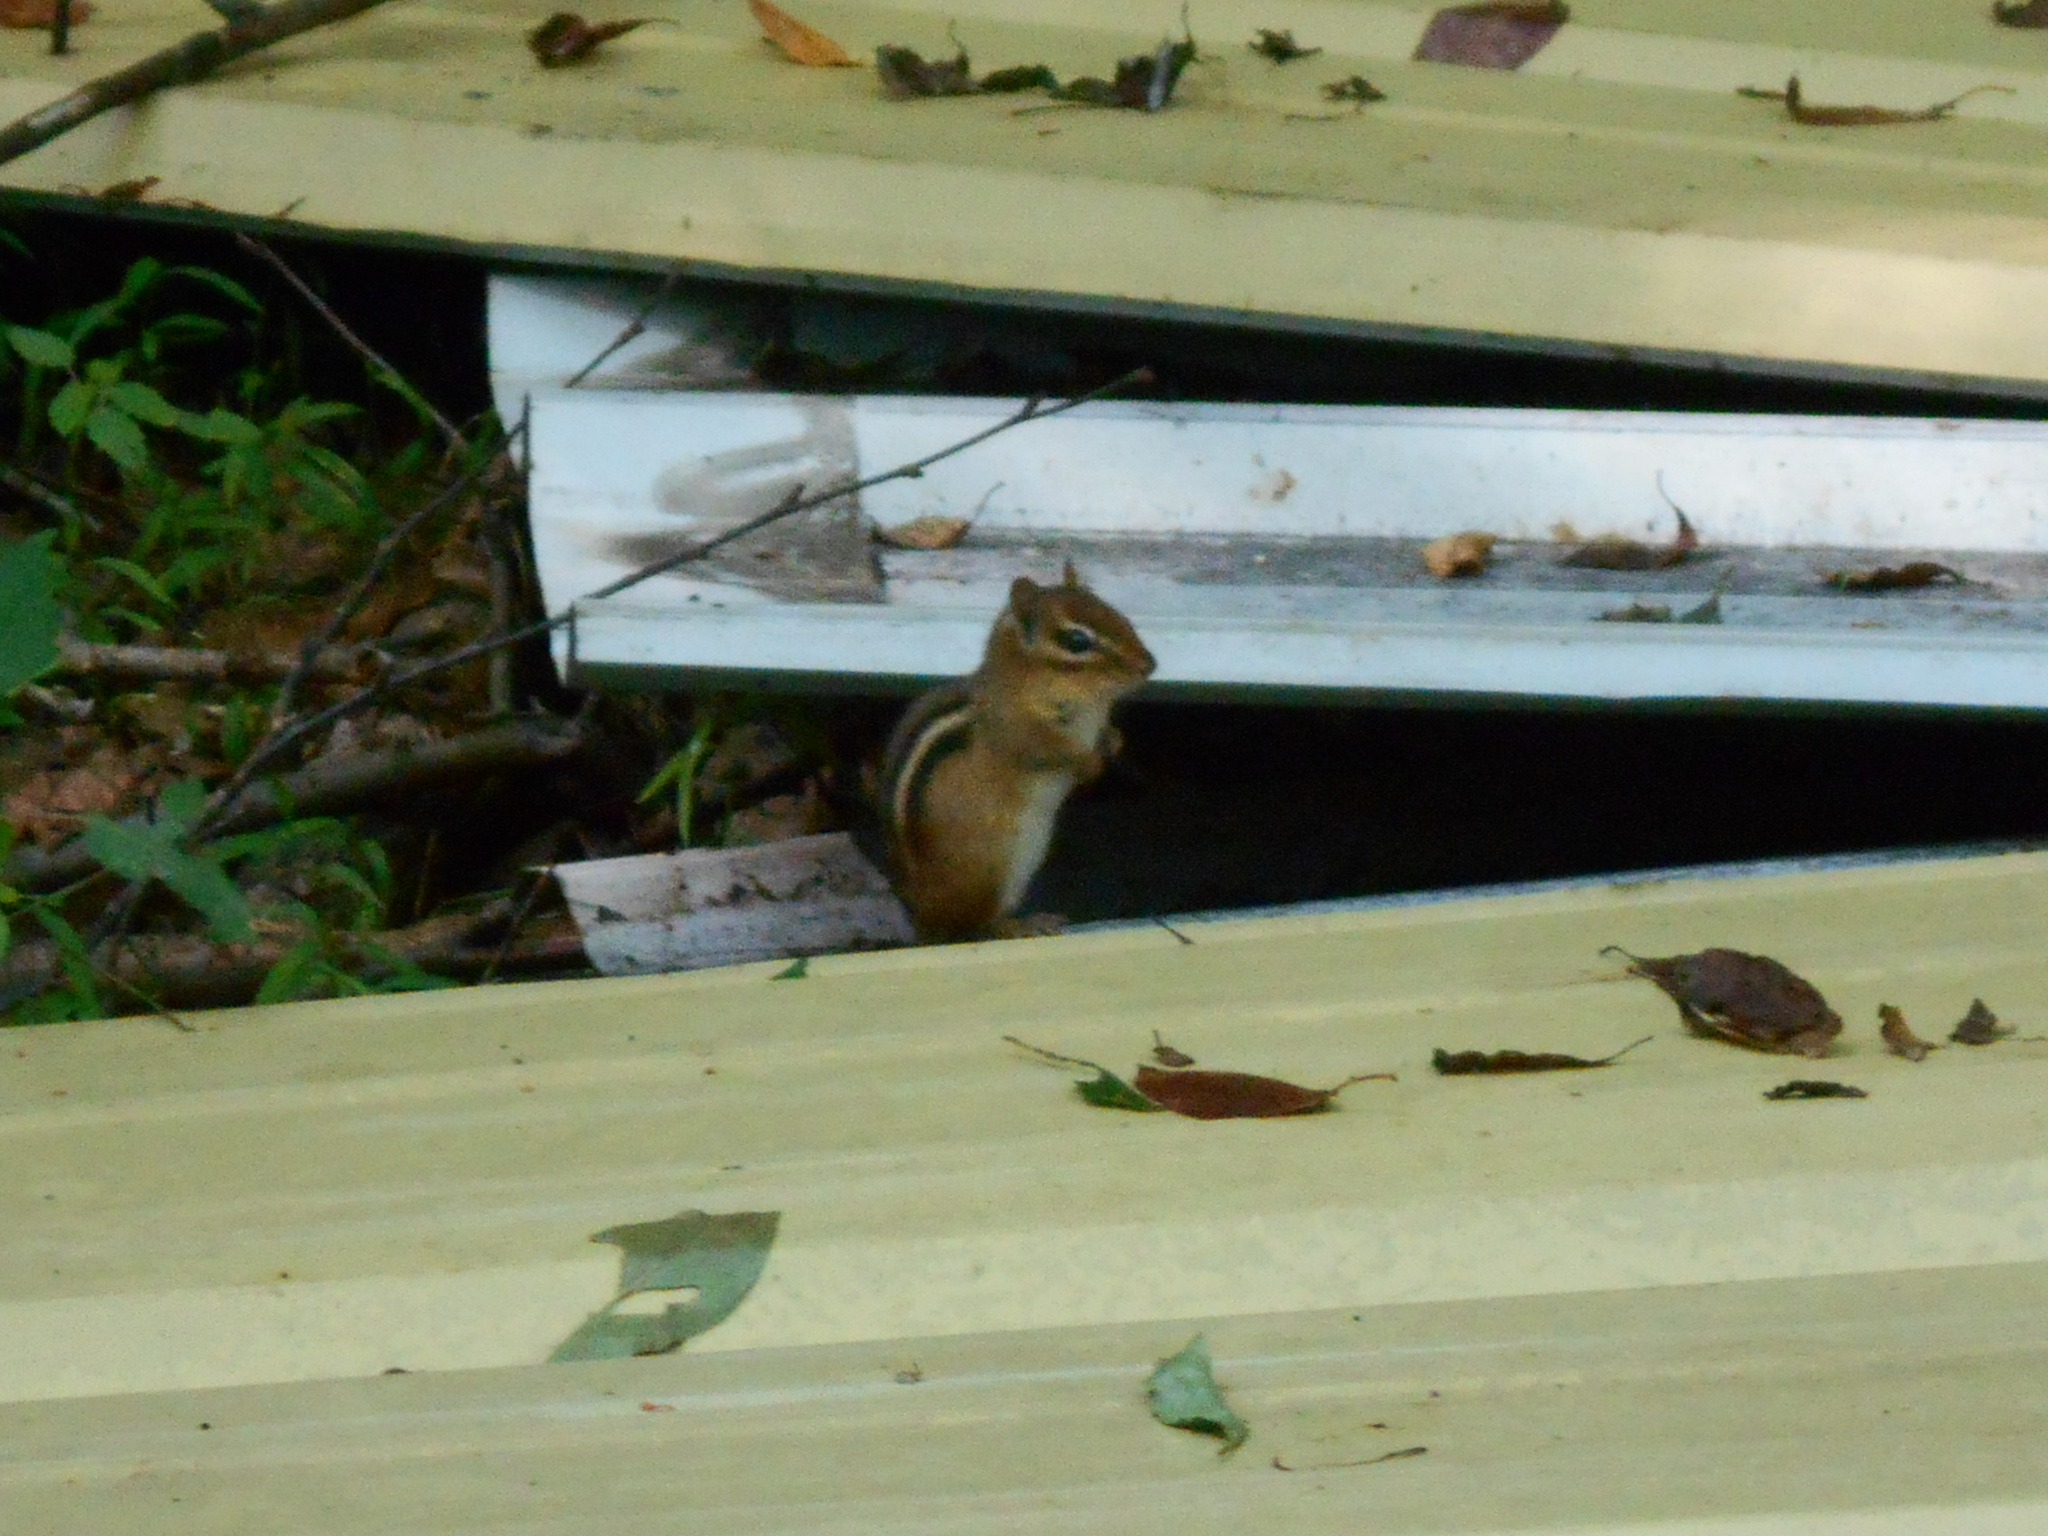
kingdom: Animalia
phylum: Chordata
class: Mammalia
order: Rodentia
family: Sciuridae
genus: Tamias
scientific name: Tamias striatus
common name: Eastern chipmunk
